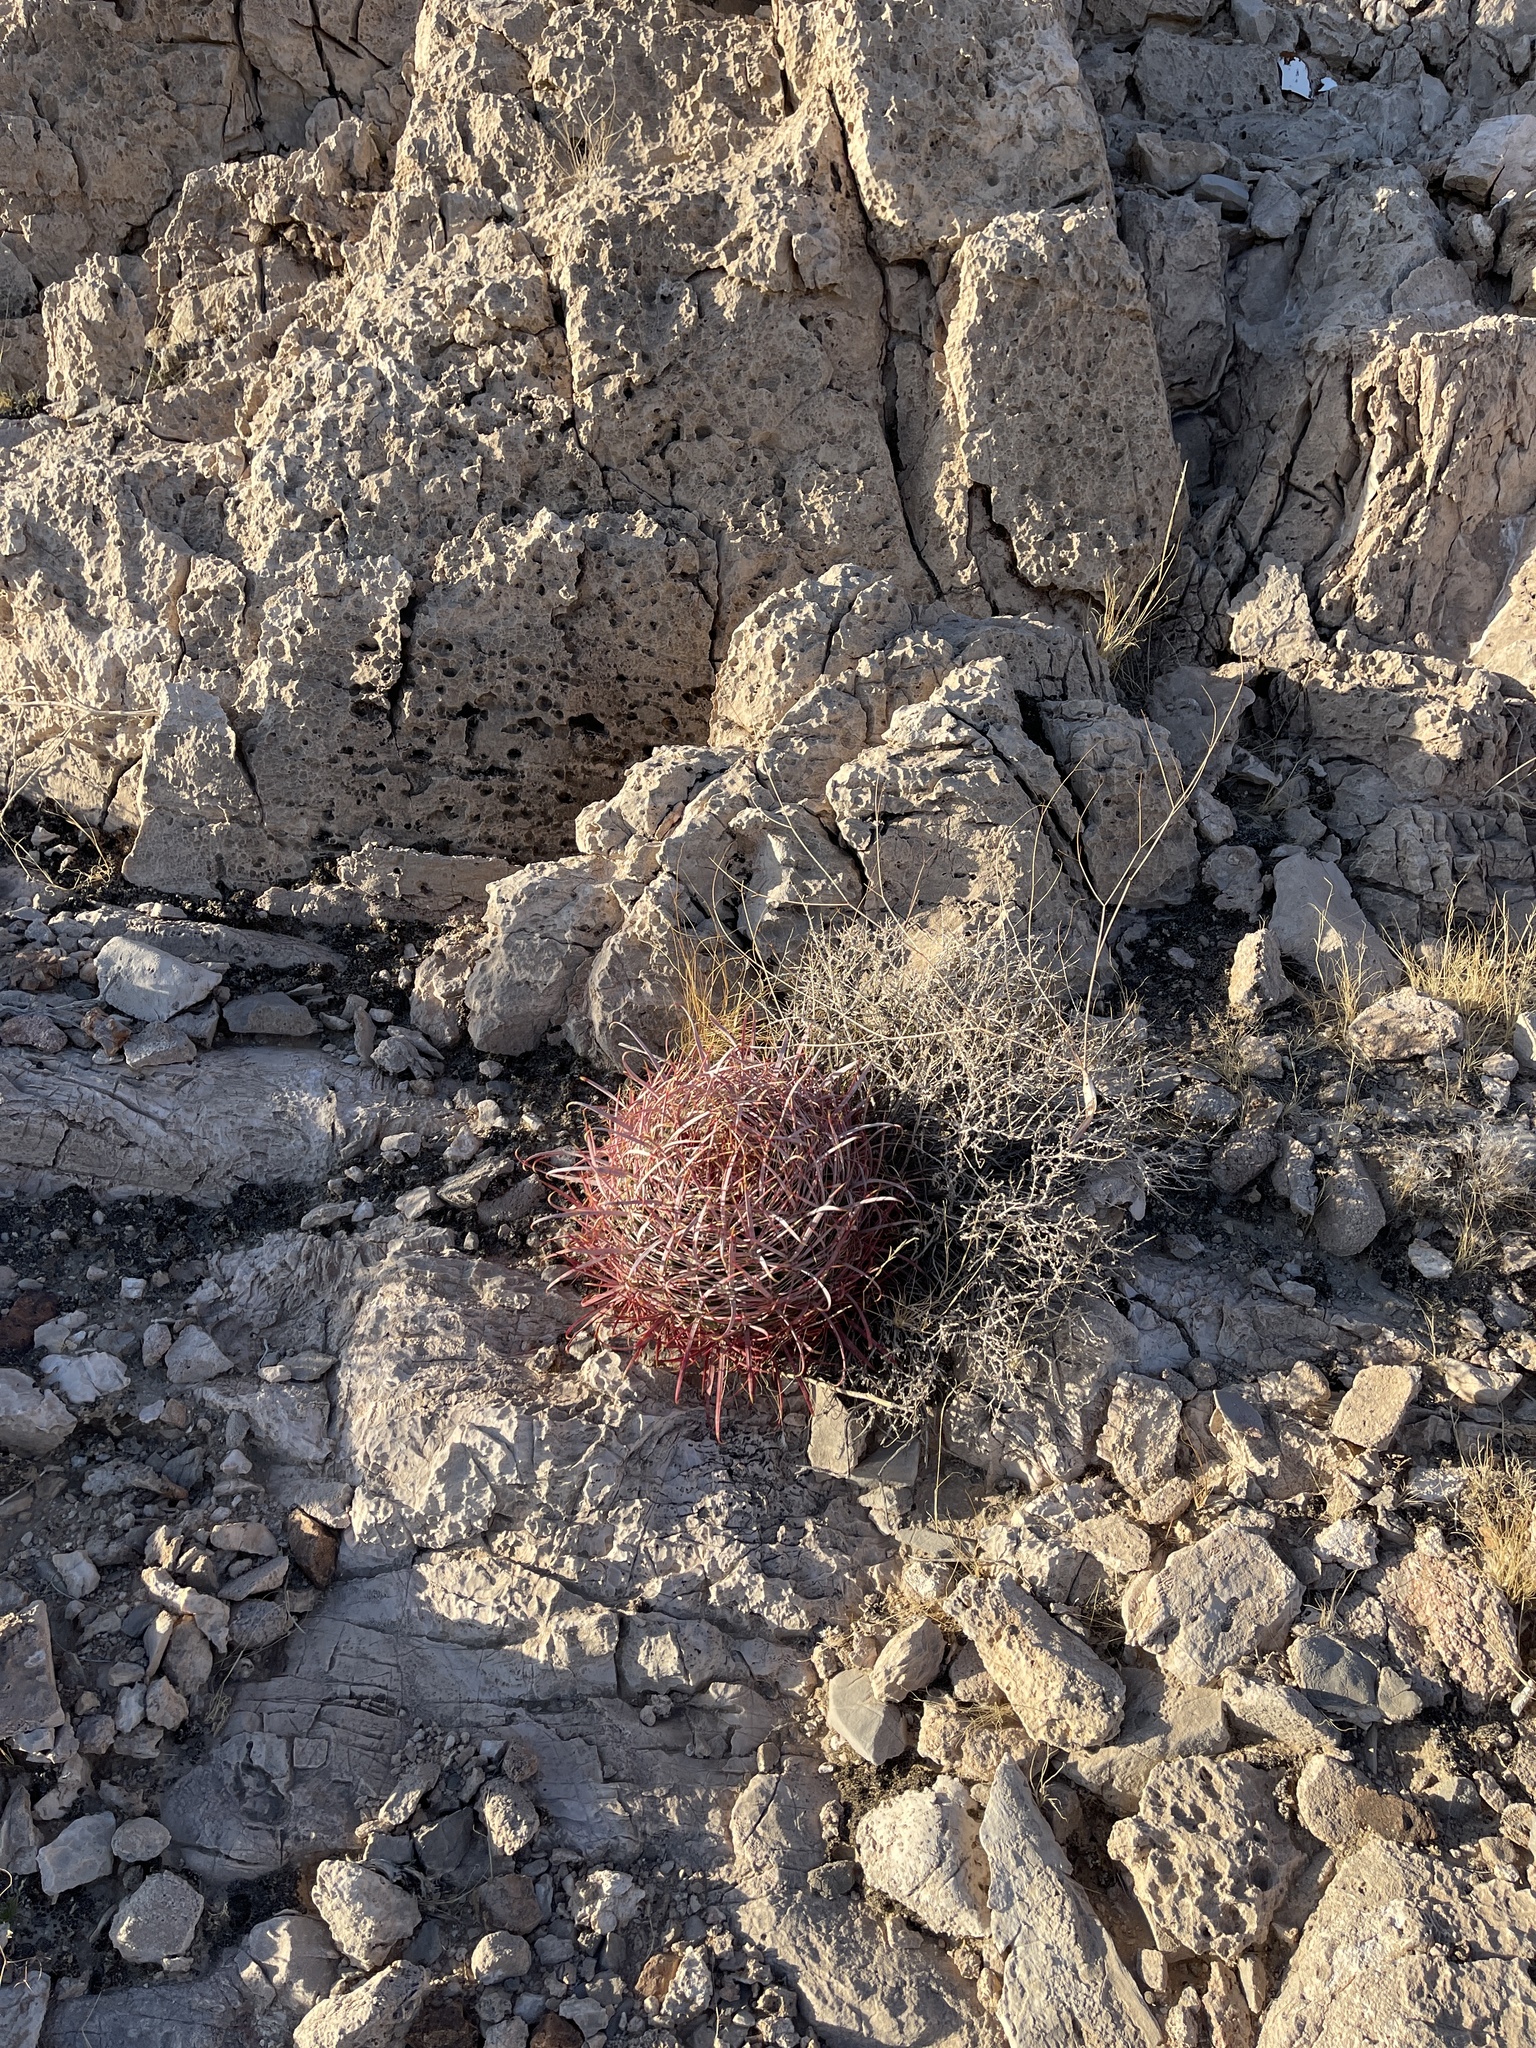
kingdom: Plantae
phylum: Tracheophyta
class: Magnoliopsida
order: Caryophyllales
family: Cactaceae
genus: Ferocactus
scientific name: Ferocactus cylindraceus
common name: California barrel cactus
